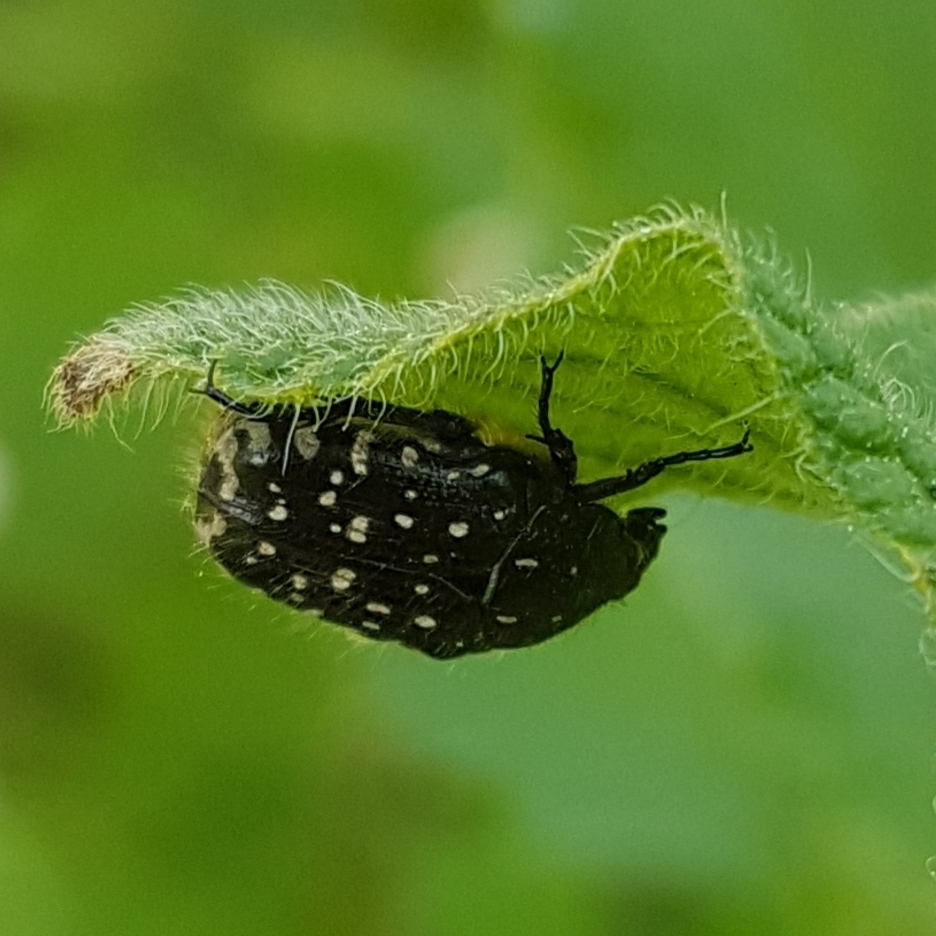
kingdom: Animalia
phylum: Arthropoda
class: Insecta
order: Coleoptera
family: Scarabaeidae
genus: Oxythyrea
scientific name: Oxythyrea funesta
